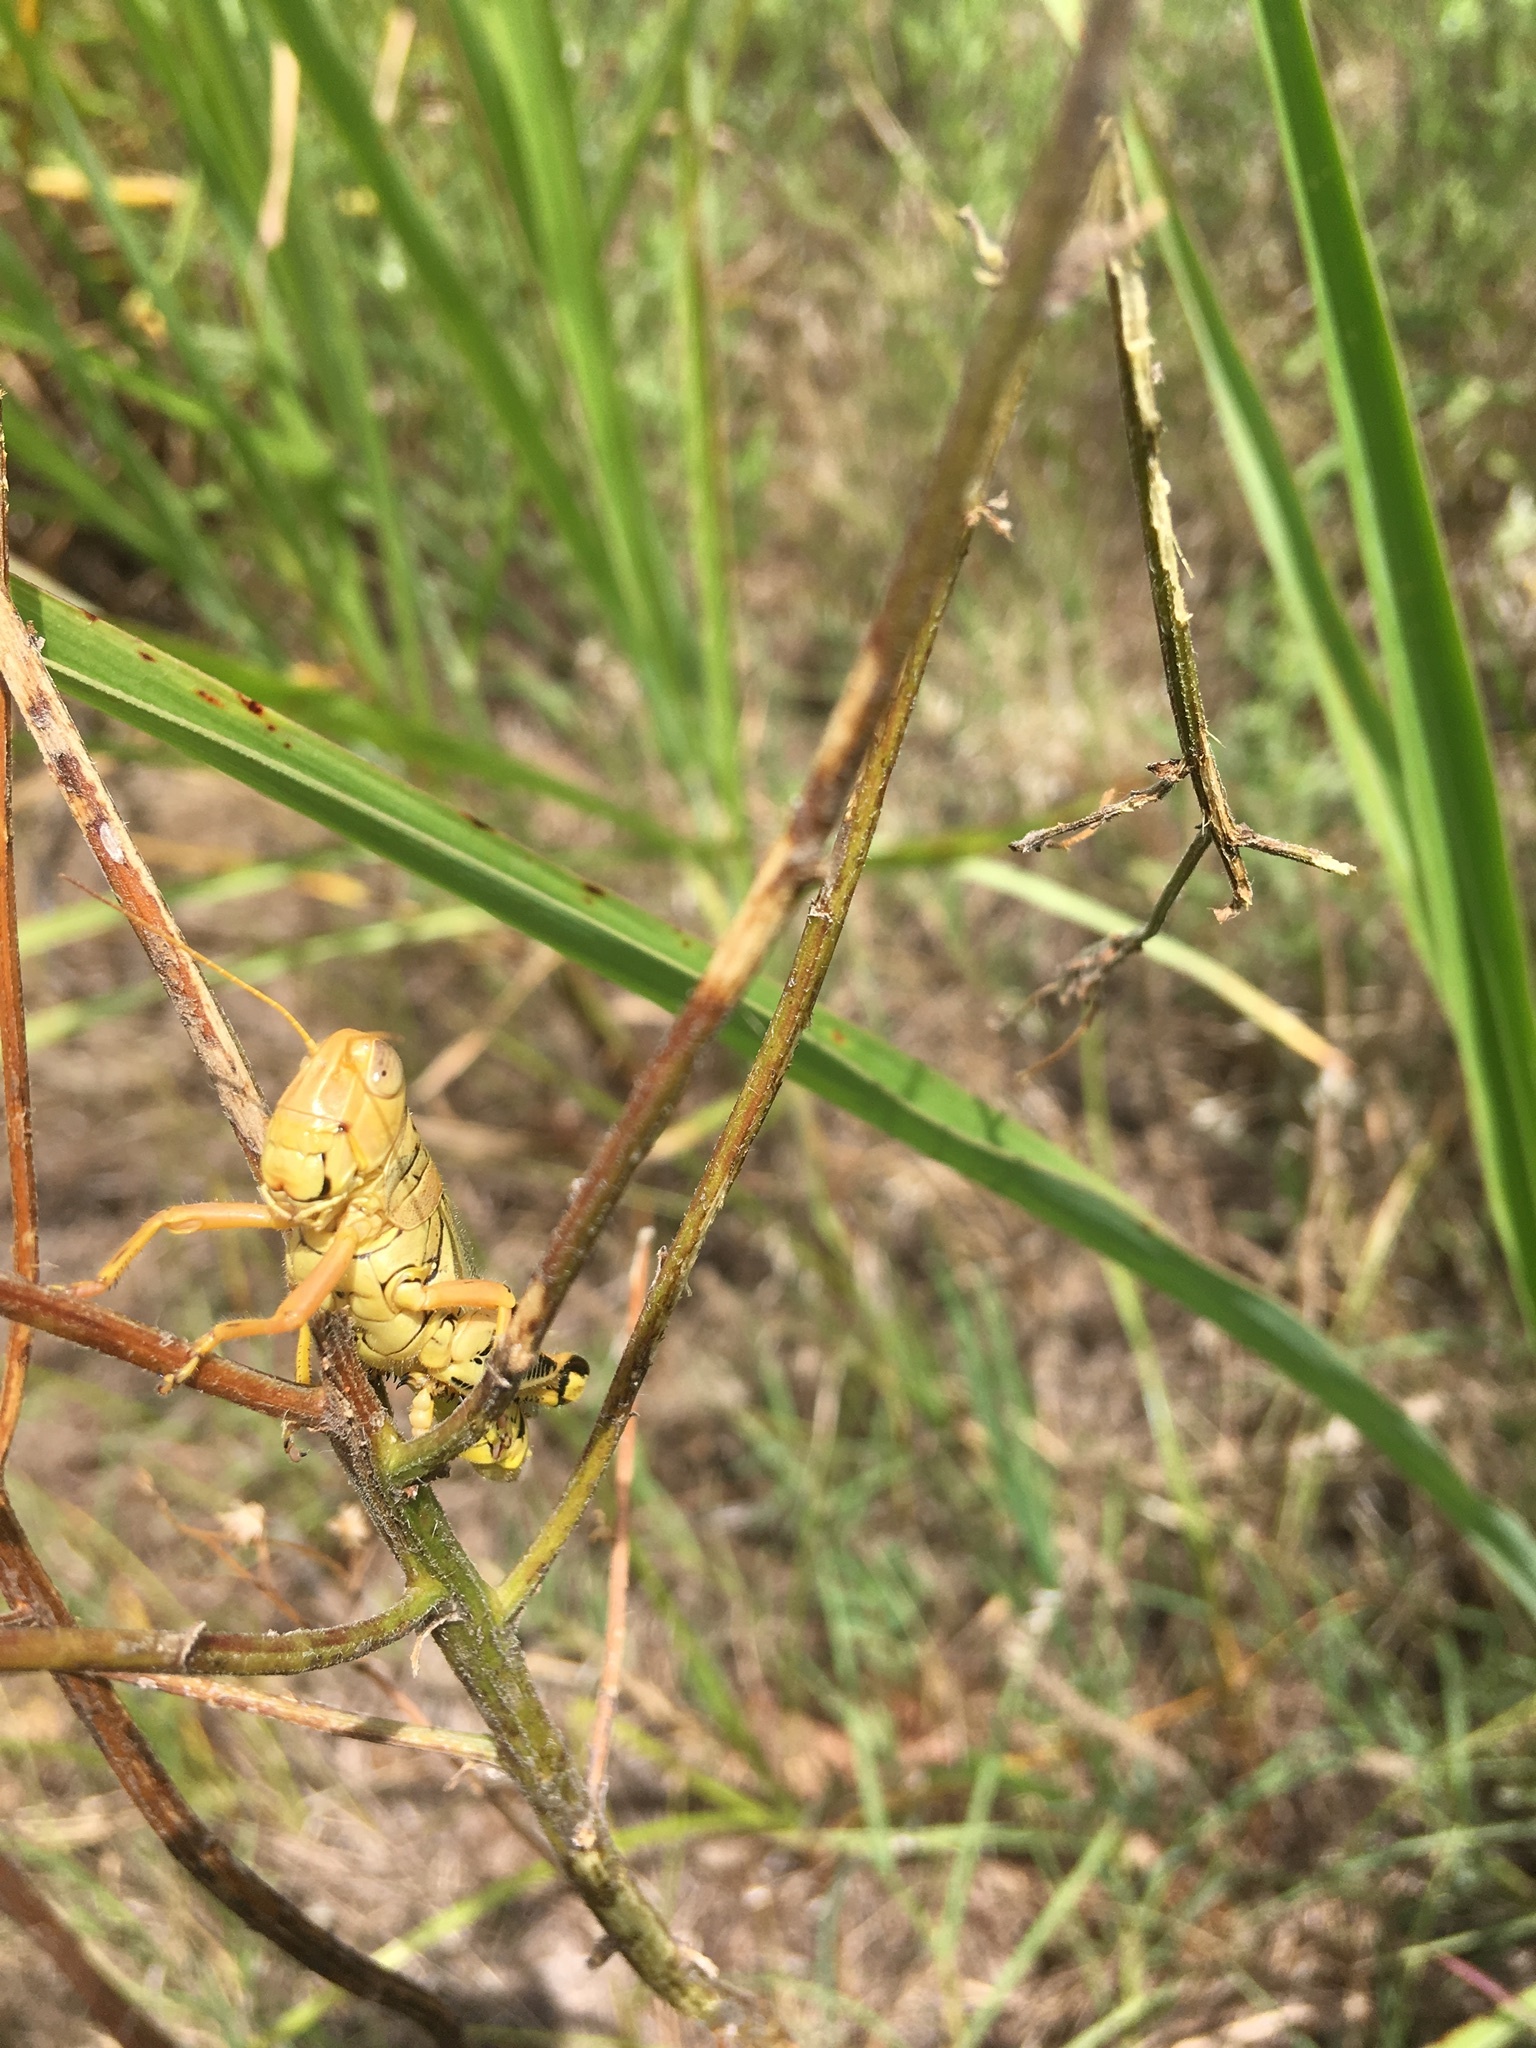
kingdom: Animalia
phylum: Arthropoda
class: Insecta
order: Orthoptera
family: Acrididae
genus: Melanoplus
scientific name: Melanoplus differentialis
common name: Differential grasshopper
